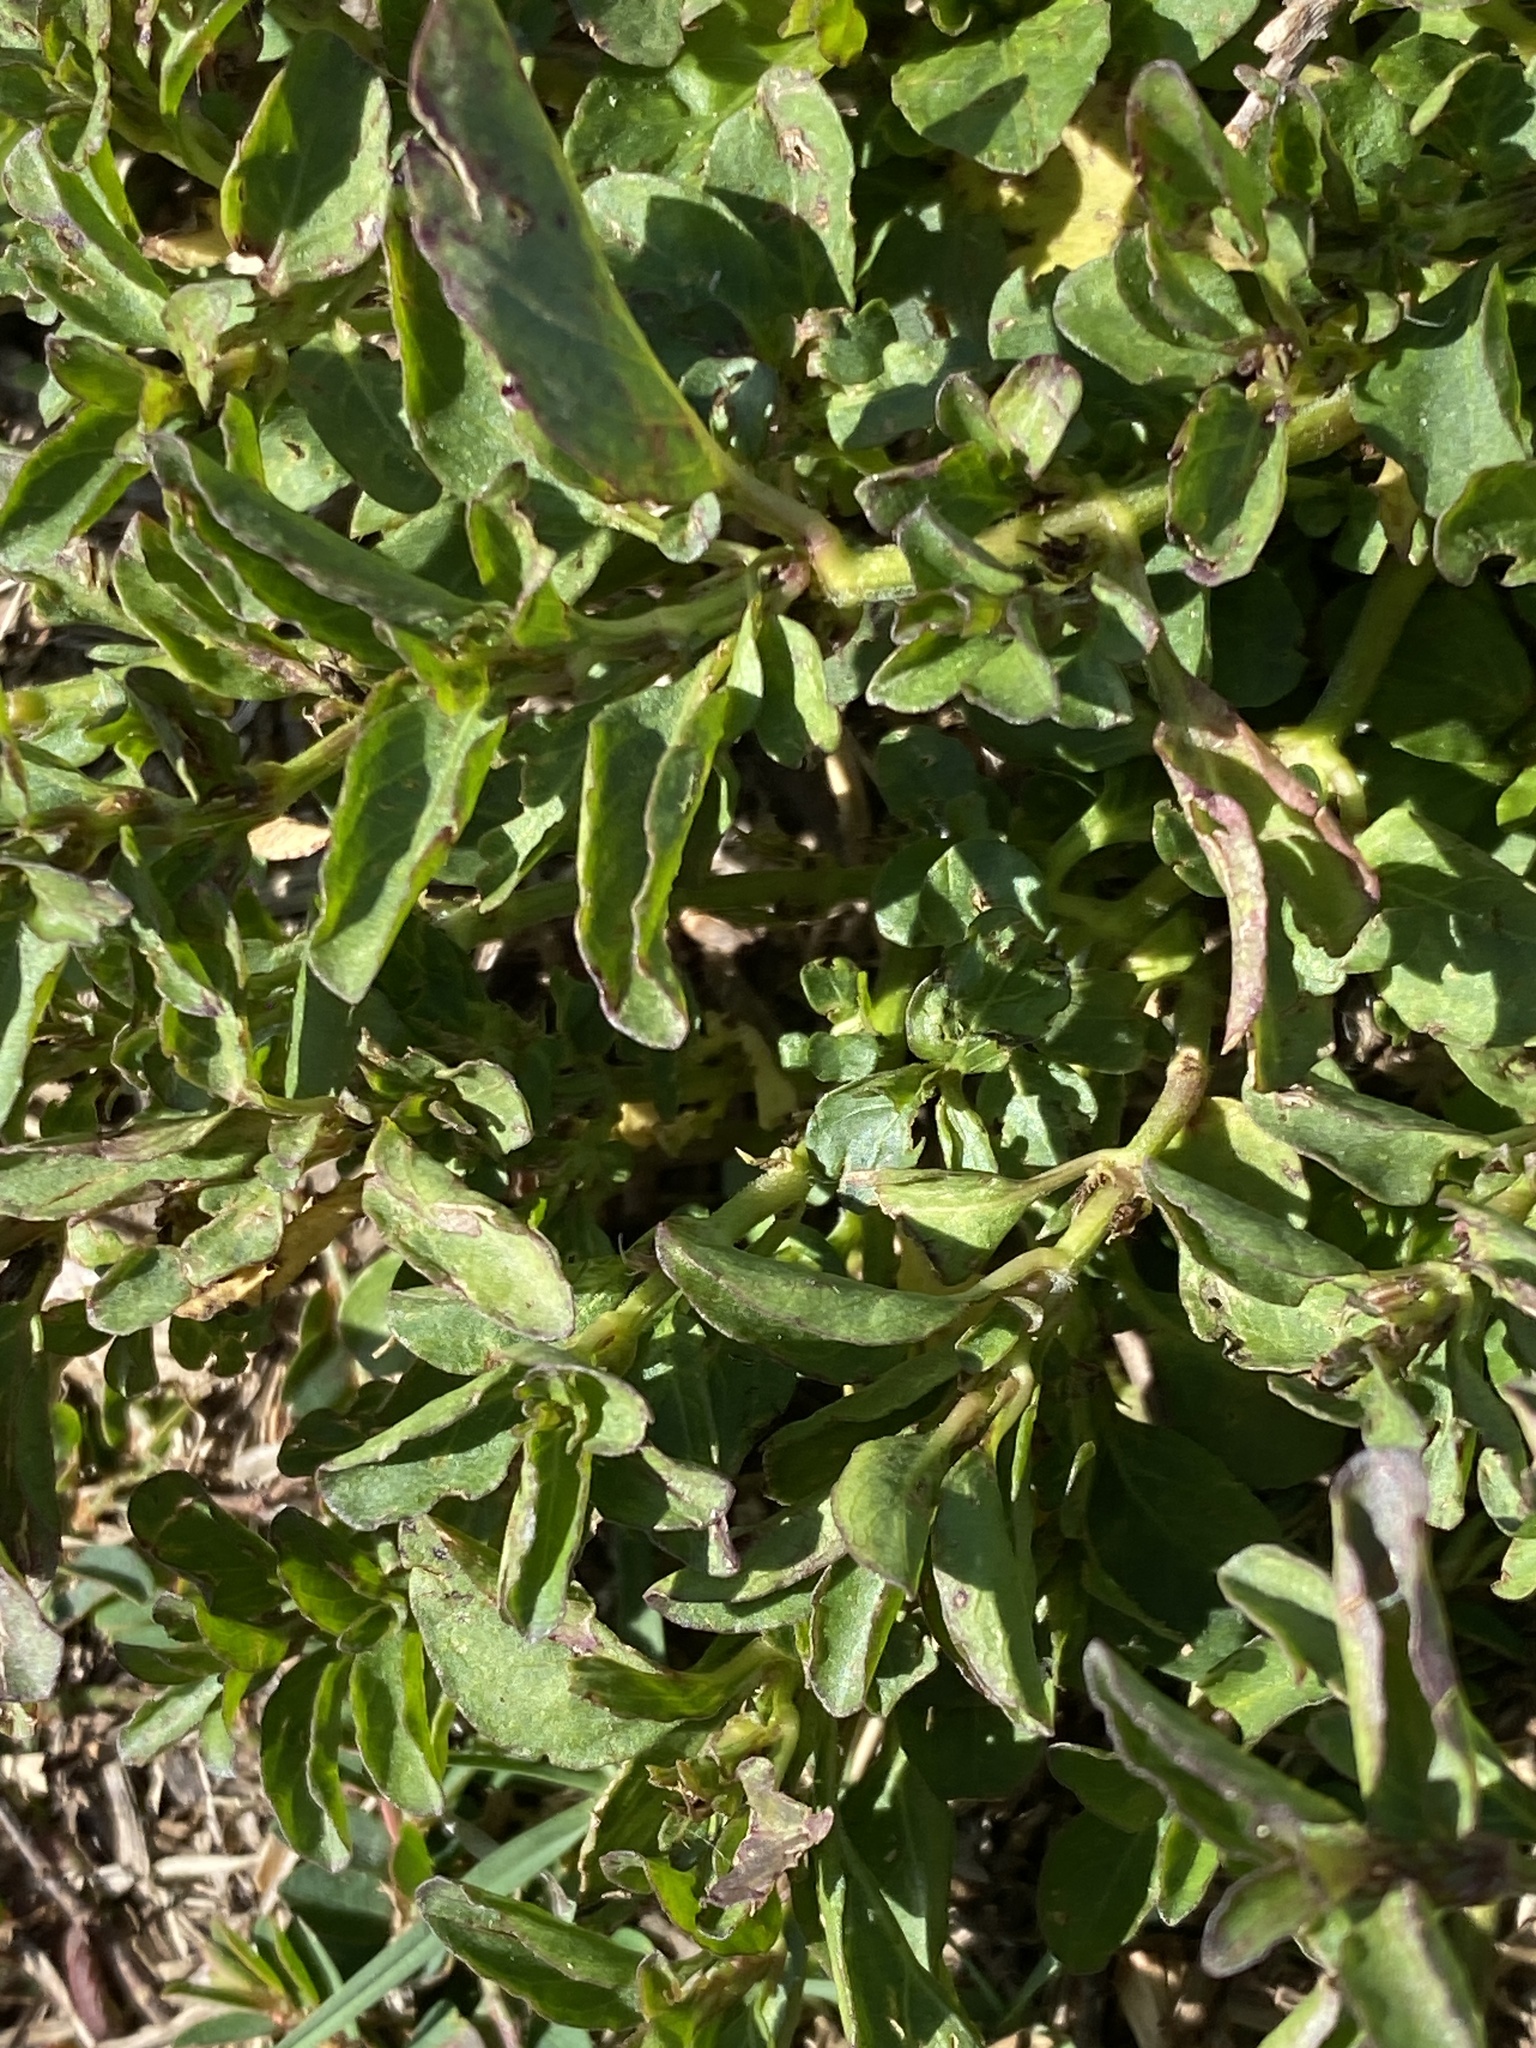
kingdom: Plantae
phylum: Tracheophyta
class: Magnoliopsida
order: Lamiales
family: Acanthaceae
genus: Hygrophila
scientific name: Hygrophila erecta
